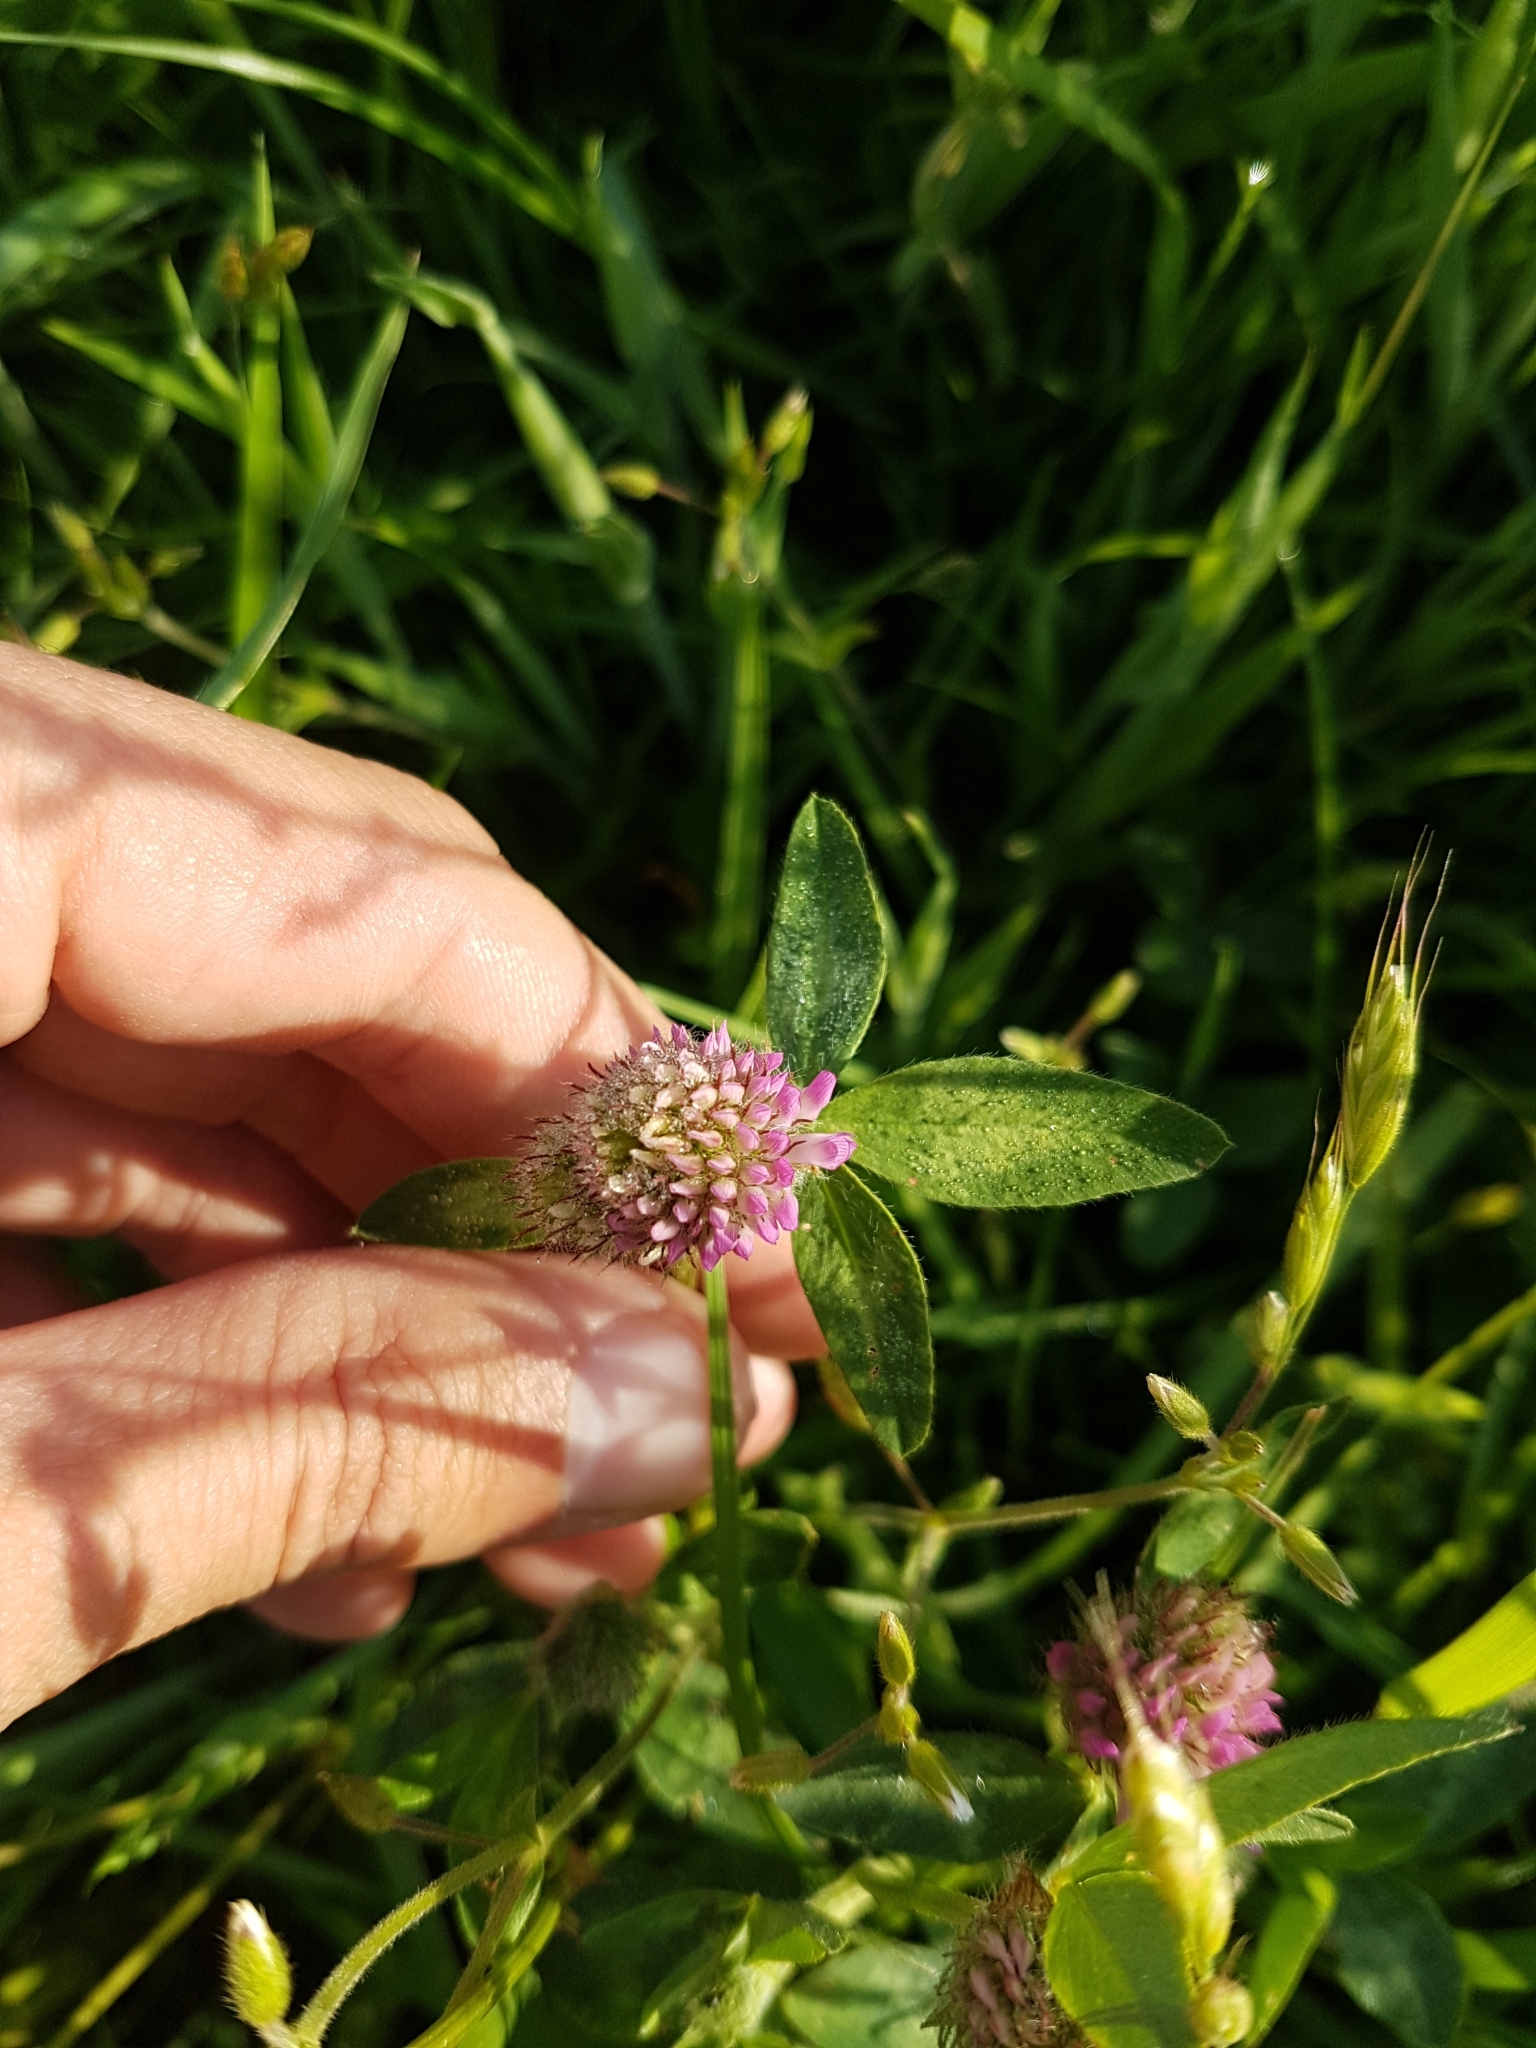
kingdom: Plantae
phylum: Tracheophyta
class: Magnoliopsida
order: Fabales
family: Fabaceae
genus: Trifolium
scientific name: Trifolium pratense
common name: Red clover
